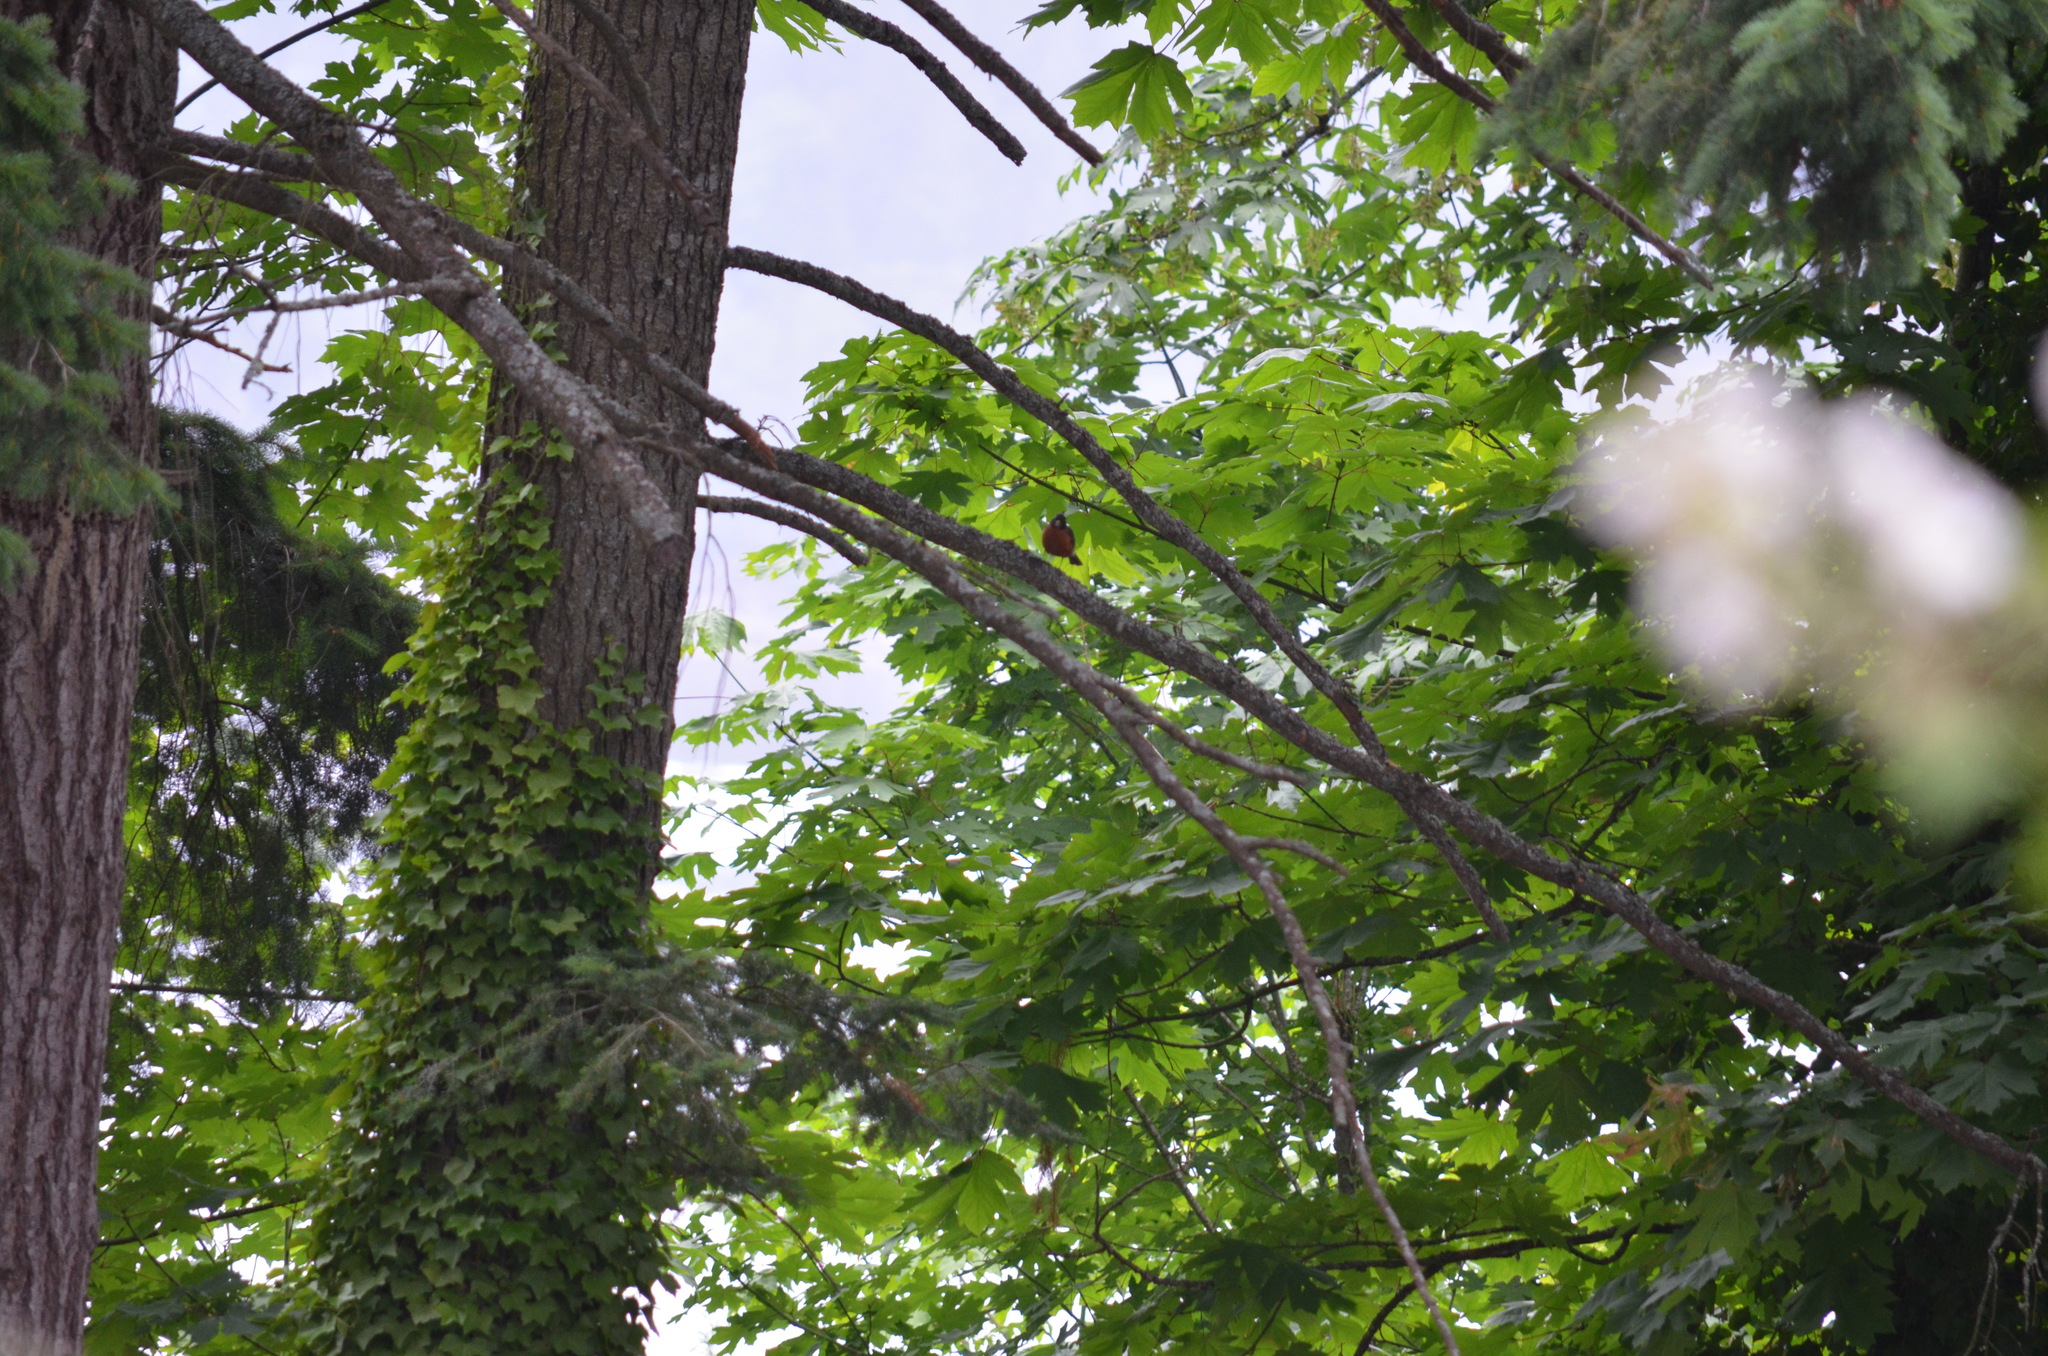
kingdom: Animalia
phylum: Chordata
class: Aves
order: Passeriformes
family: Turdidae
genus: Turdus
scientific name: Turdus migratorius
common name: American robin
